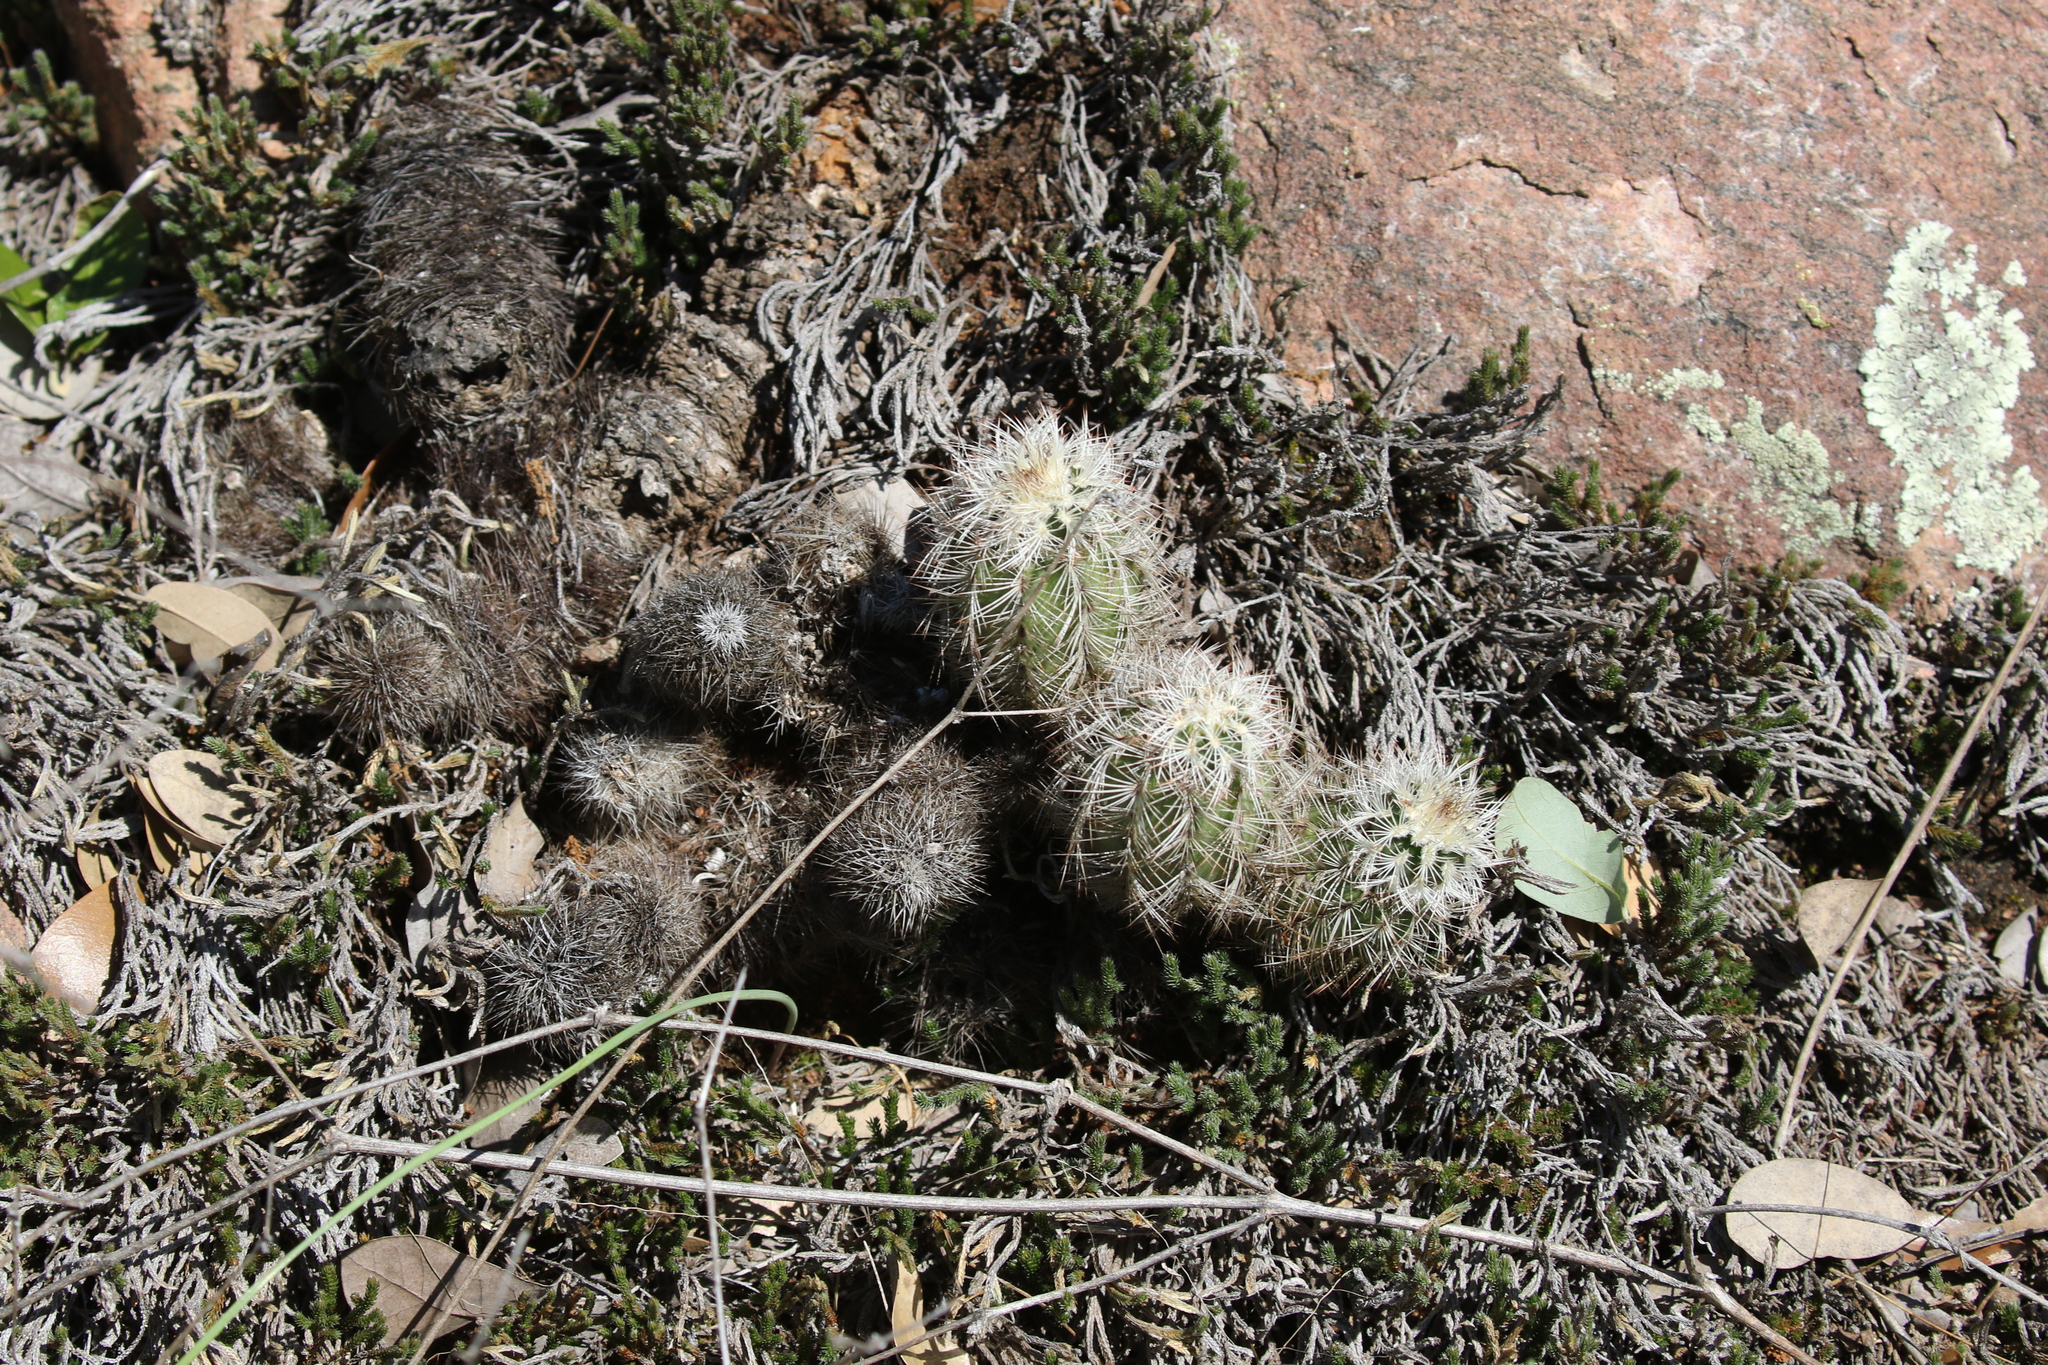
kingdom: Plantae
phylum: Tracheophyta
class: Magnoliopsida
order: Caryophyllales
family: Cactaceae
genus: Echinocereus
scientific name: Echinocereus reichenbachii
